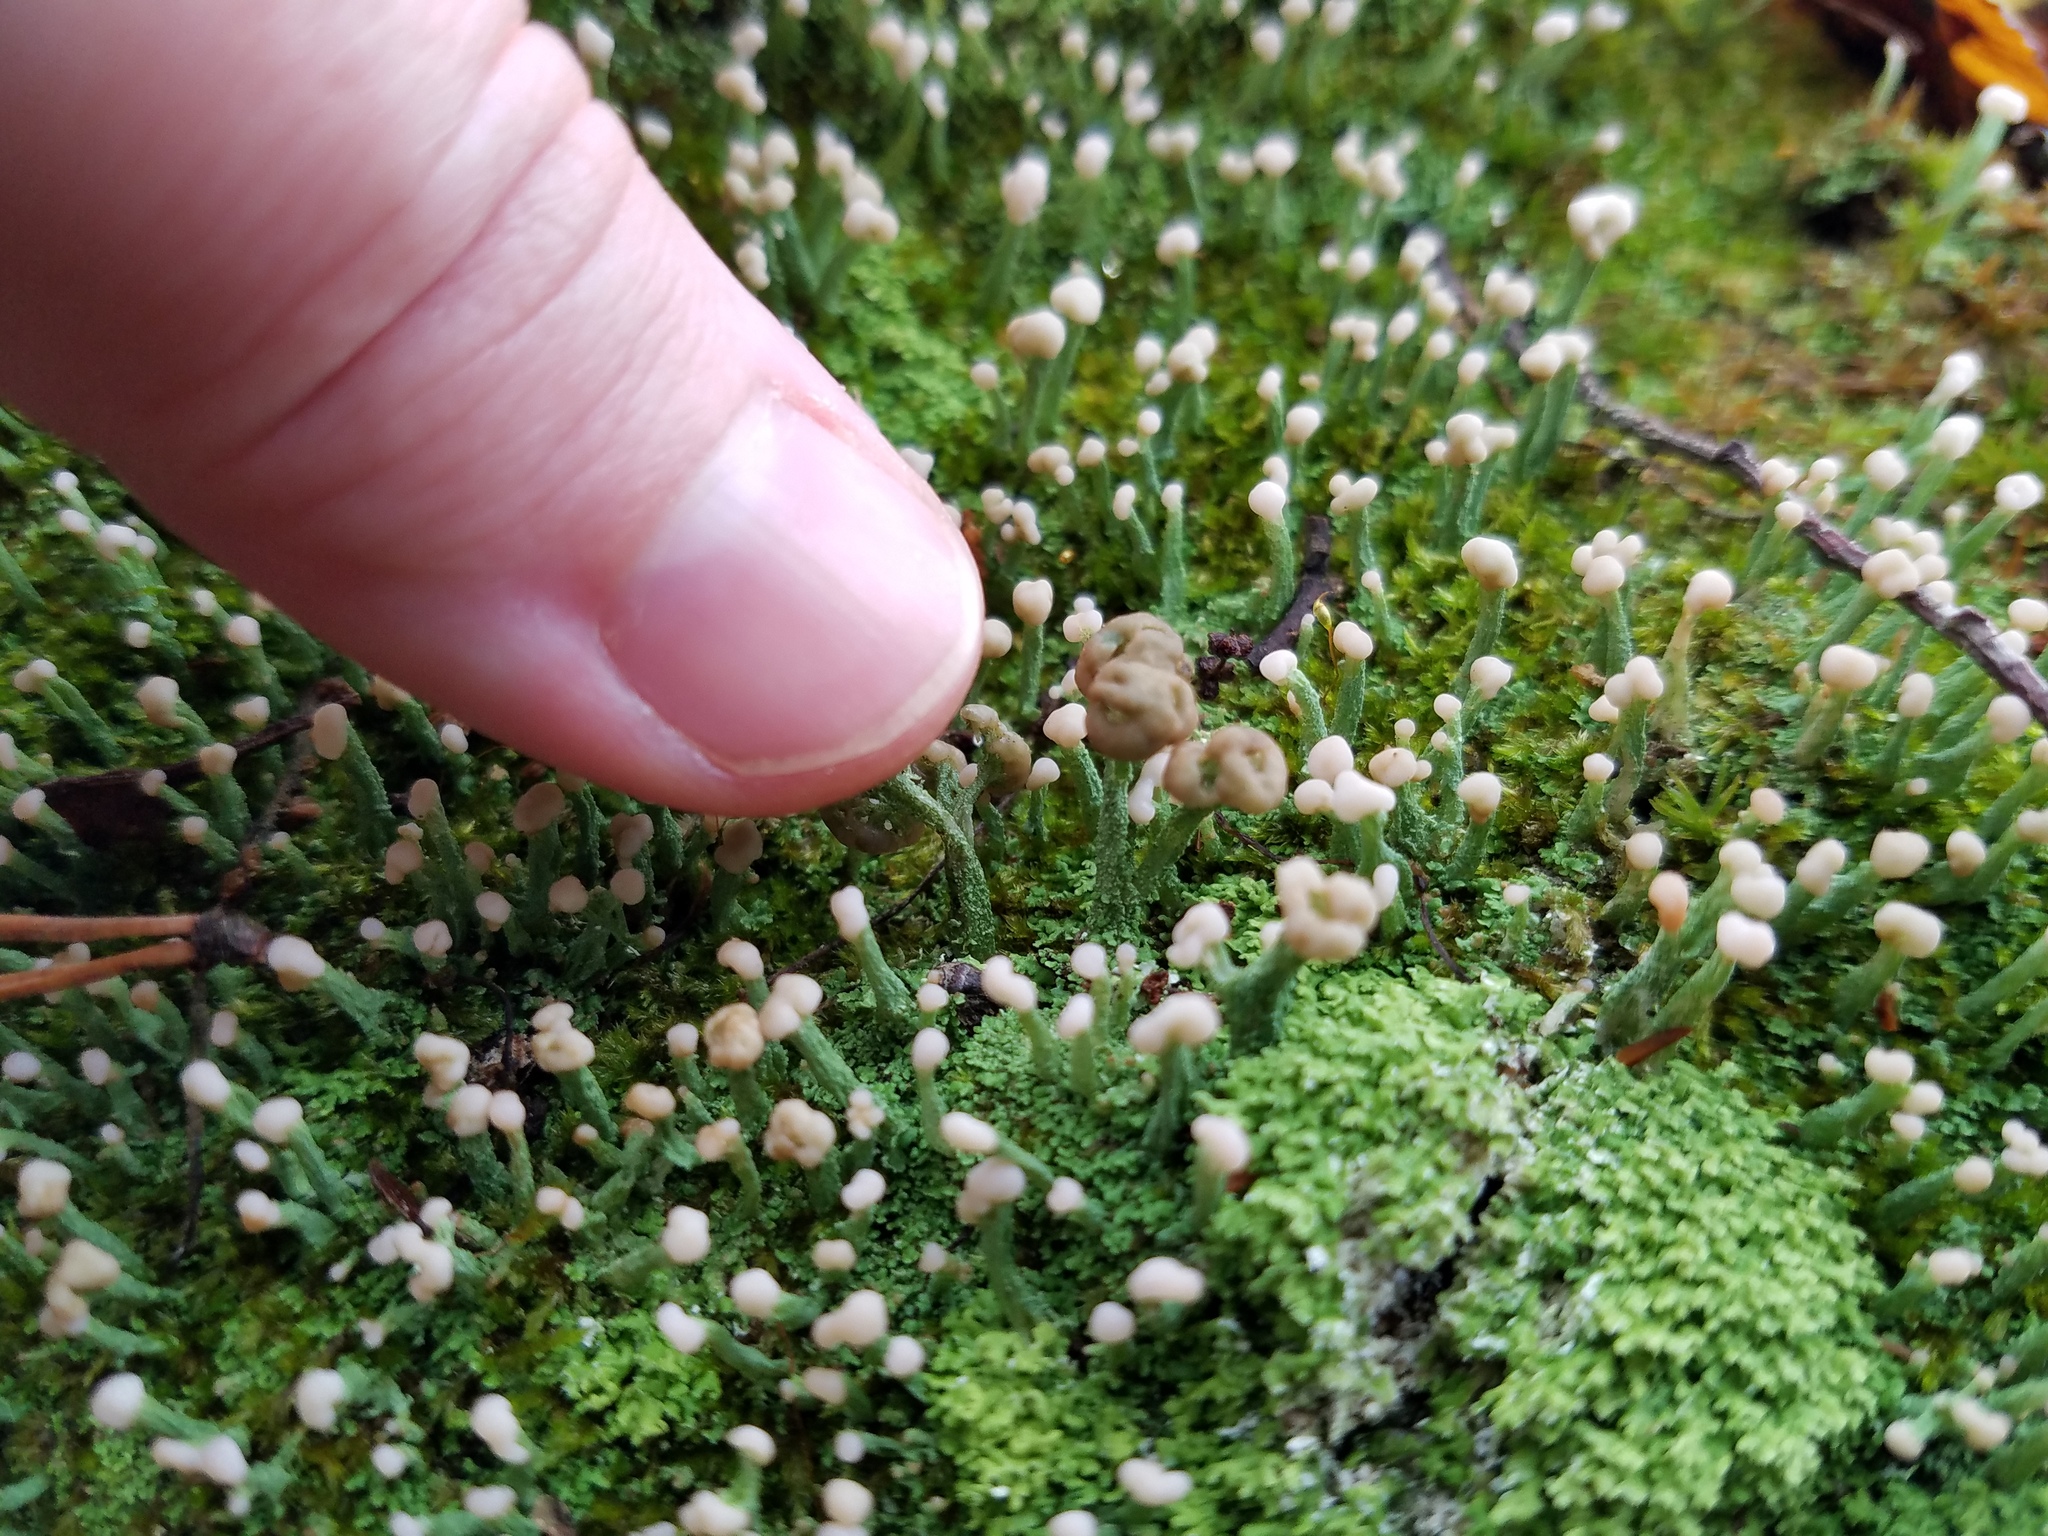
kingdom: Fungi
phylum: Ascomycota
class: Lecanoromycetes
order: Lecanorales
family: Cladoniaceae
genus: Cladonia
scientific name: Cladonia peziziformis
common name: Cup lichen
